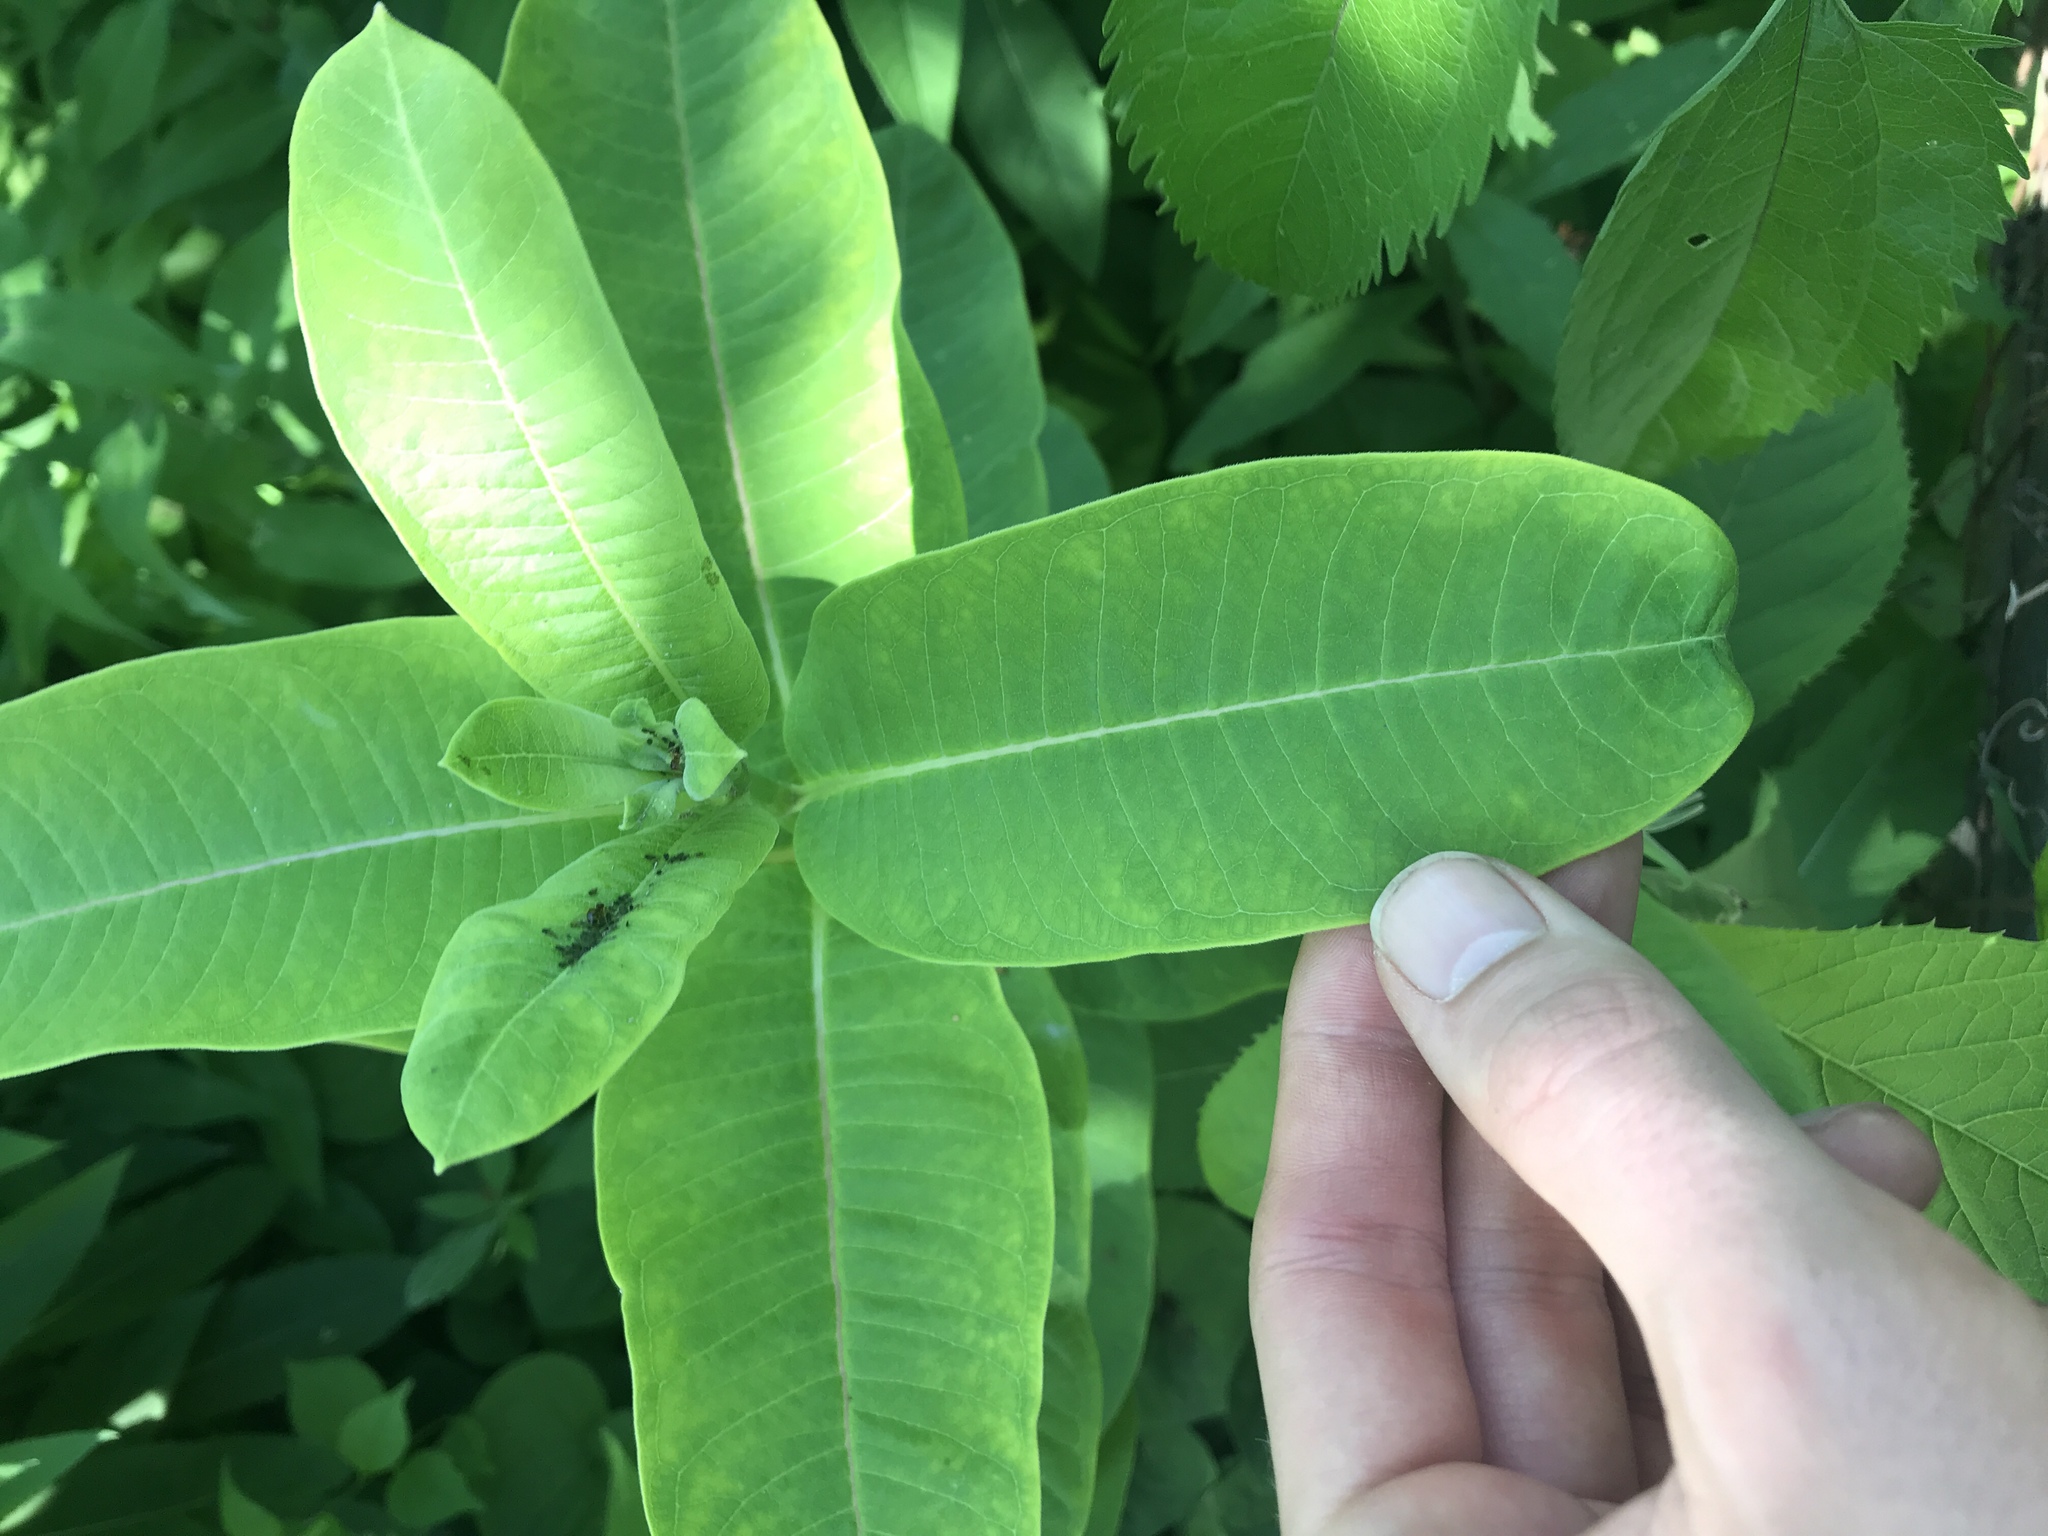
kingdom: Plantae
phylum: Tracheophyta
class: Magnoliopsida
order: Gentianales
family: Apocynaceae
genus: Asclepias
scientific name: Asclepias syriaca
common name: Common milkweed
